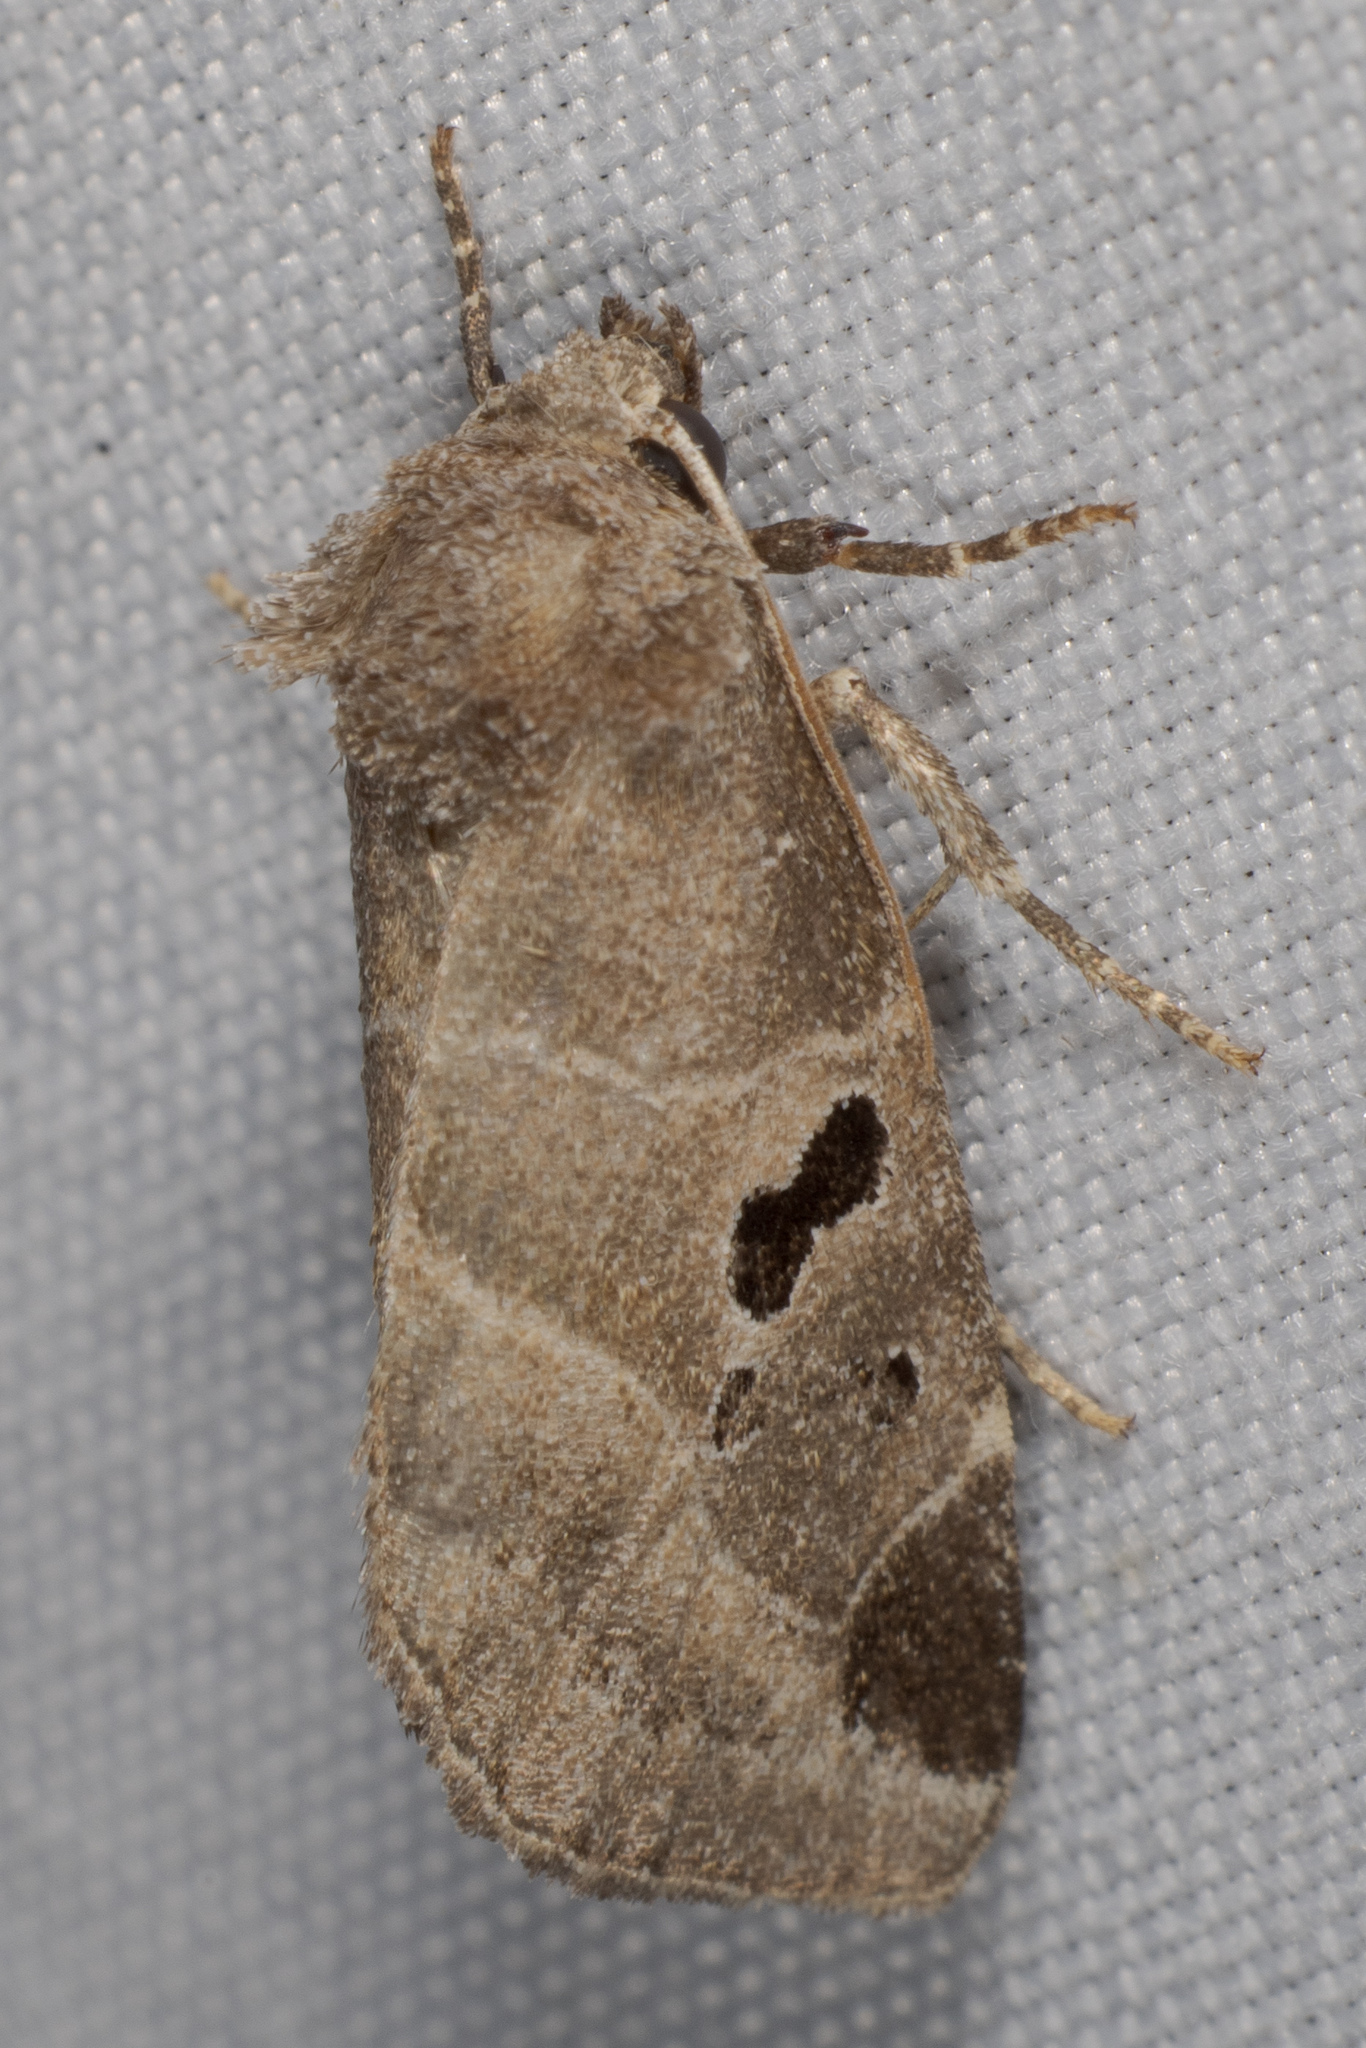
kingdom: Animalia
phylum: Arthropoda
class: Insecta
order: Lepidoptera
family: Noctuidae
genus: Plagiomimicus
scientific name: Plagiomimicus pityochromus
